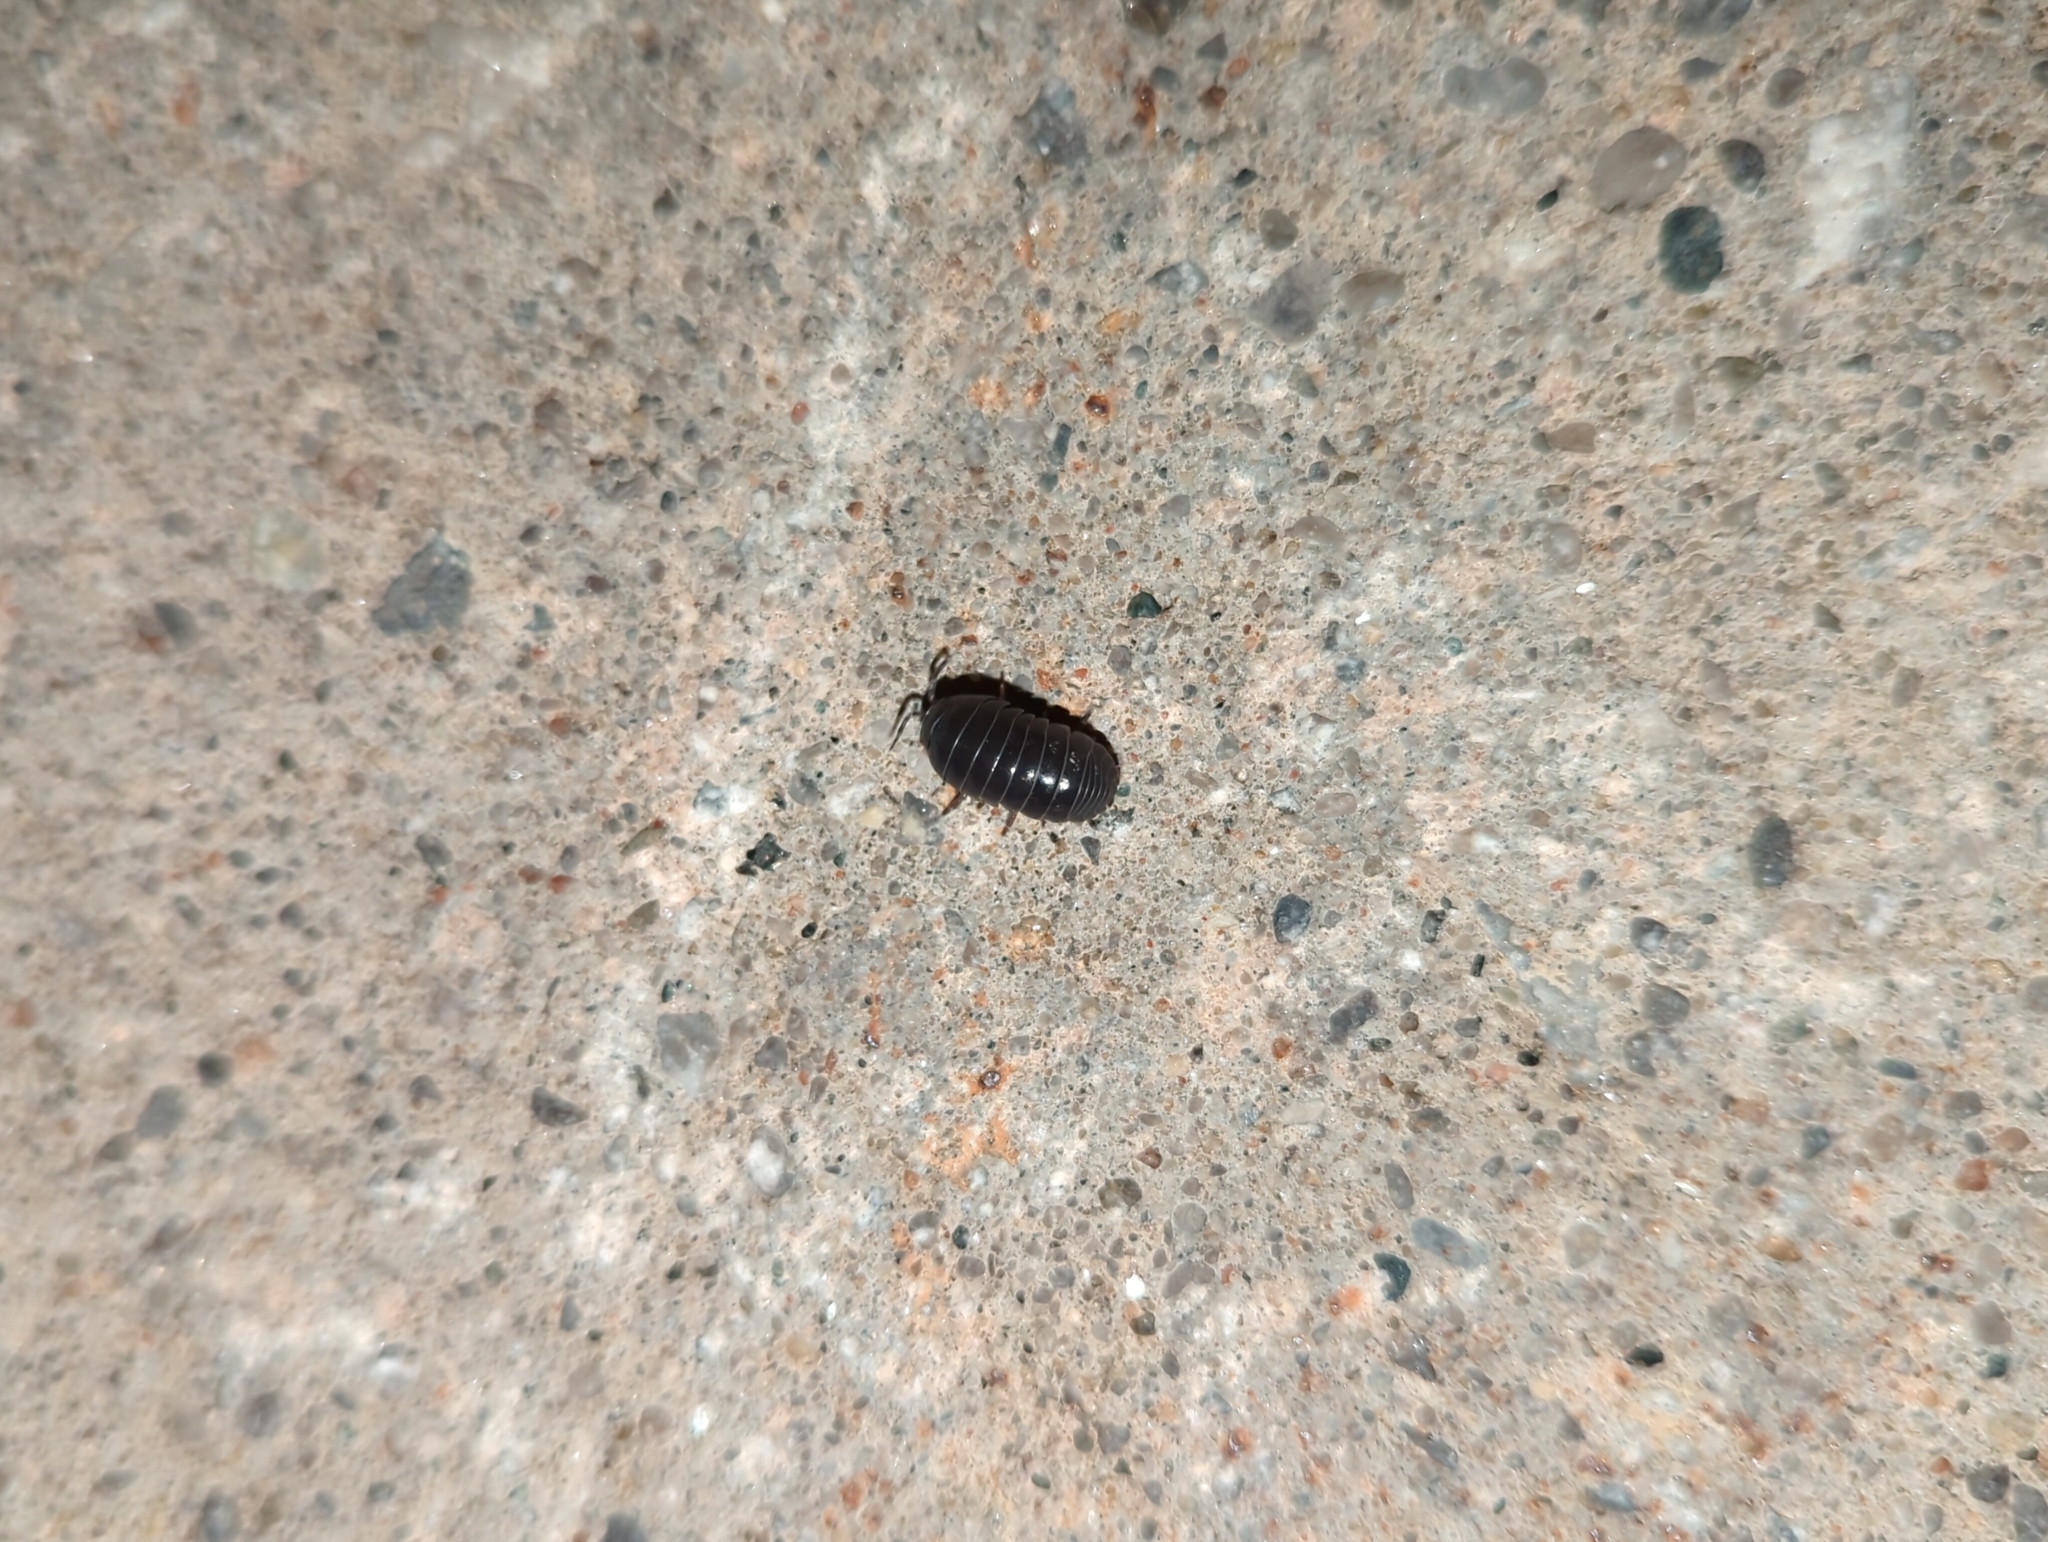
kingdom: Animalia
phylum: Arthropoda
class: Malacostraca
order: Isopoda
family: Armadillidiidae
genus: Armadillidium
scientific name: Armadillidium vulgare
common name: Common pill woodlouse
